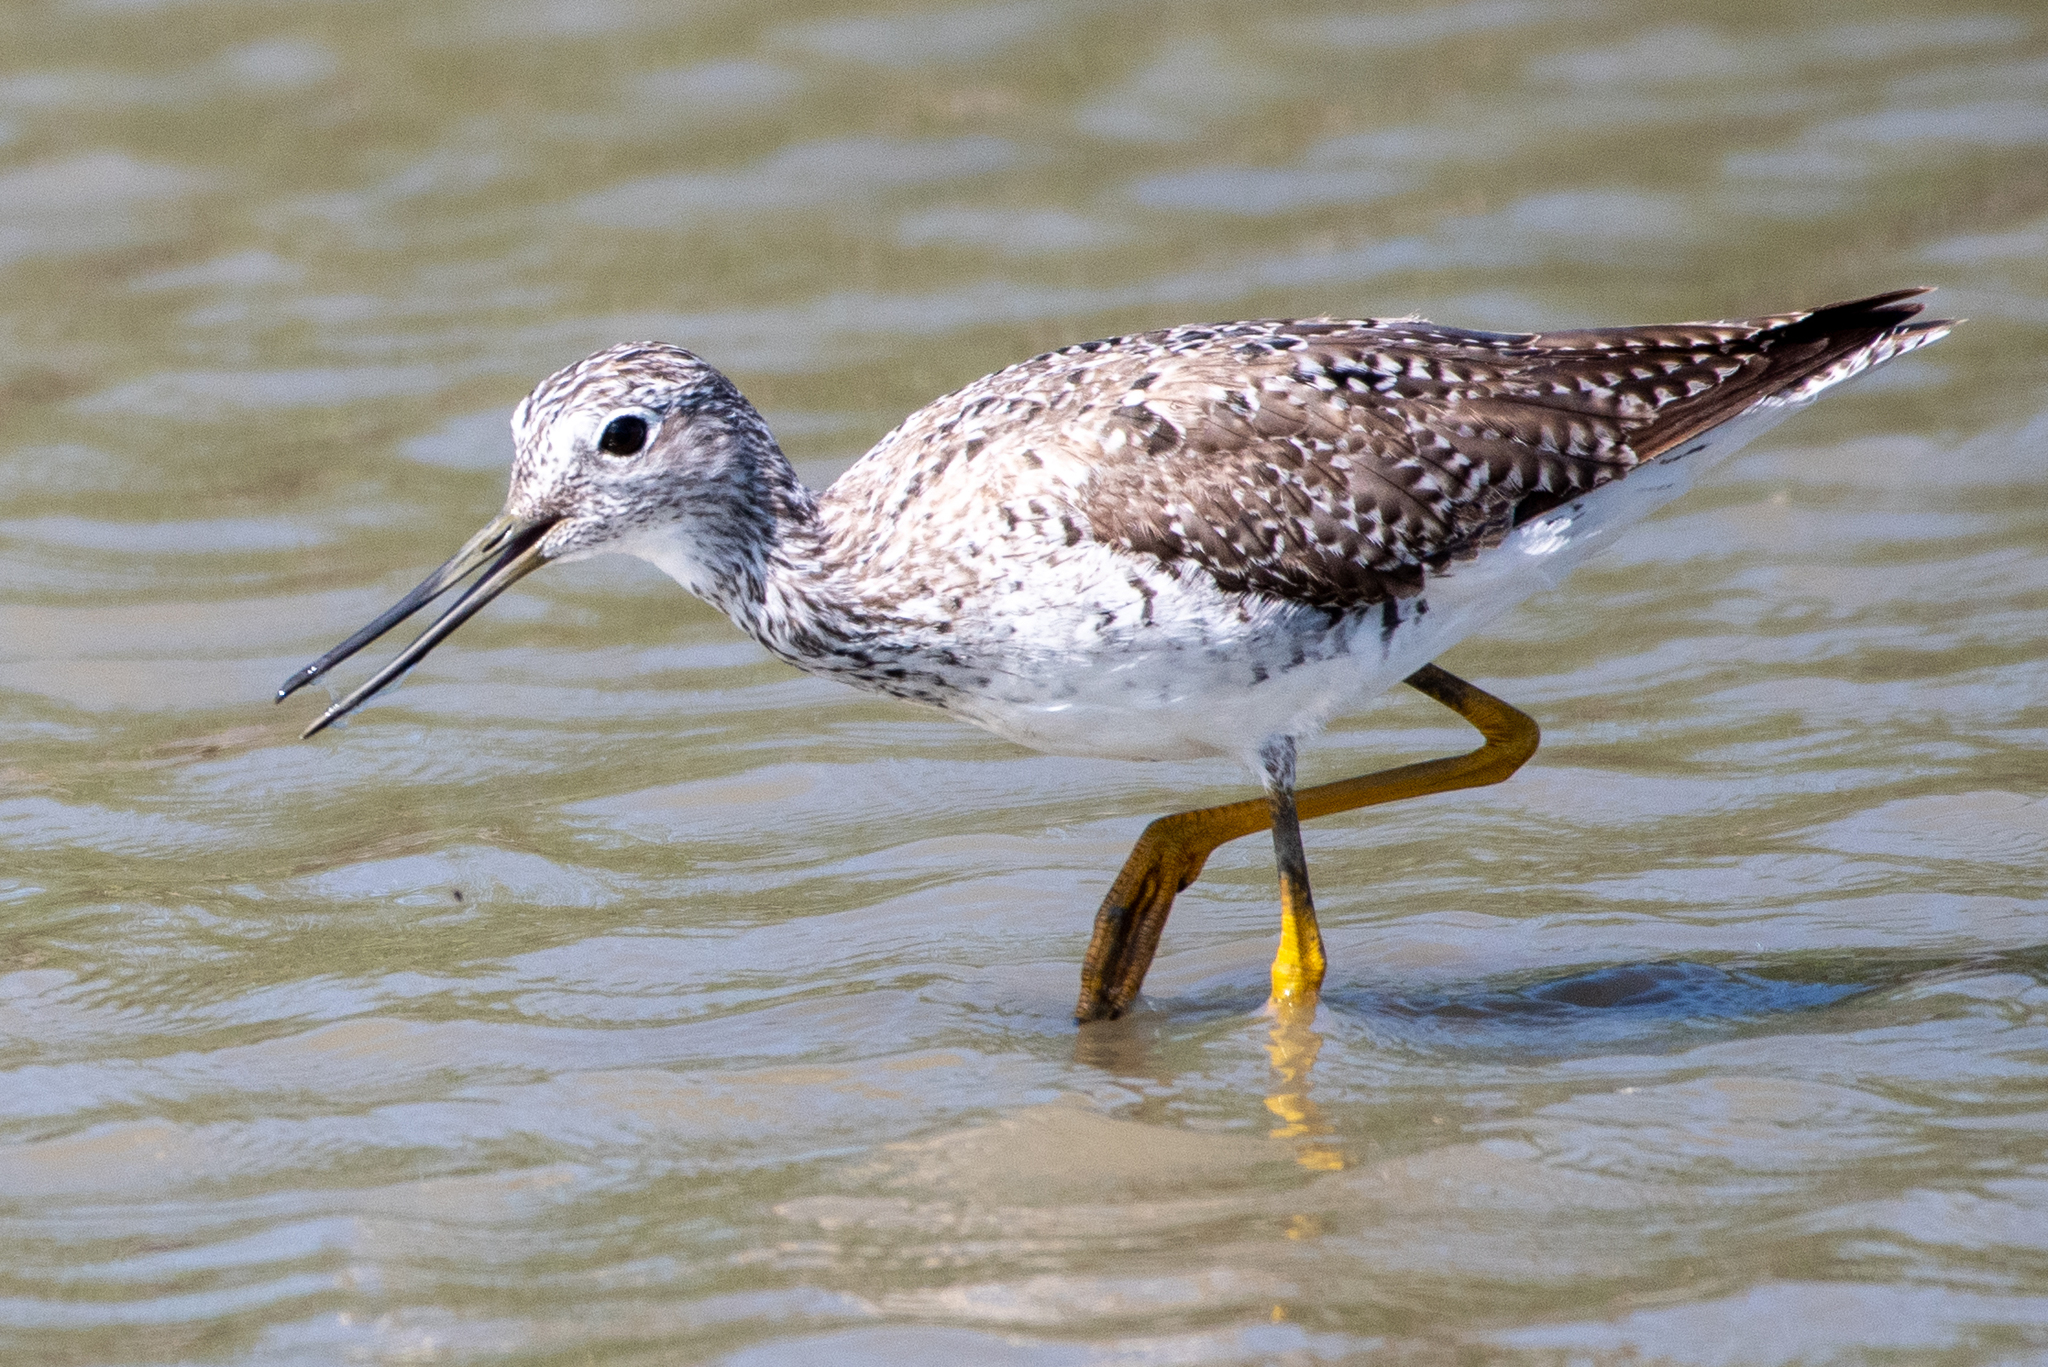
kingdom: Animalia
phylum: Chordata
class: Aves
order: Charadriiformes
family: Scolopacidae
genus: Tringa
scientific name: Tringa melanoleuca
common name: Greater yellowlegs
